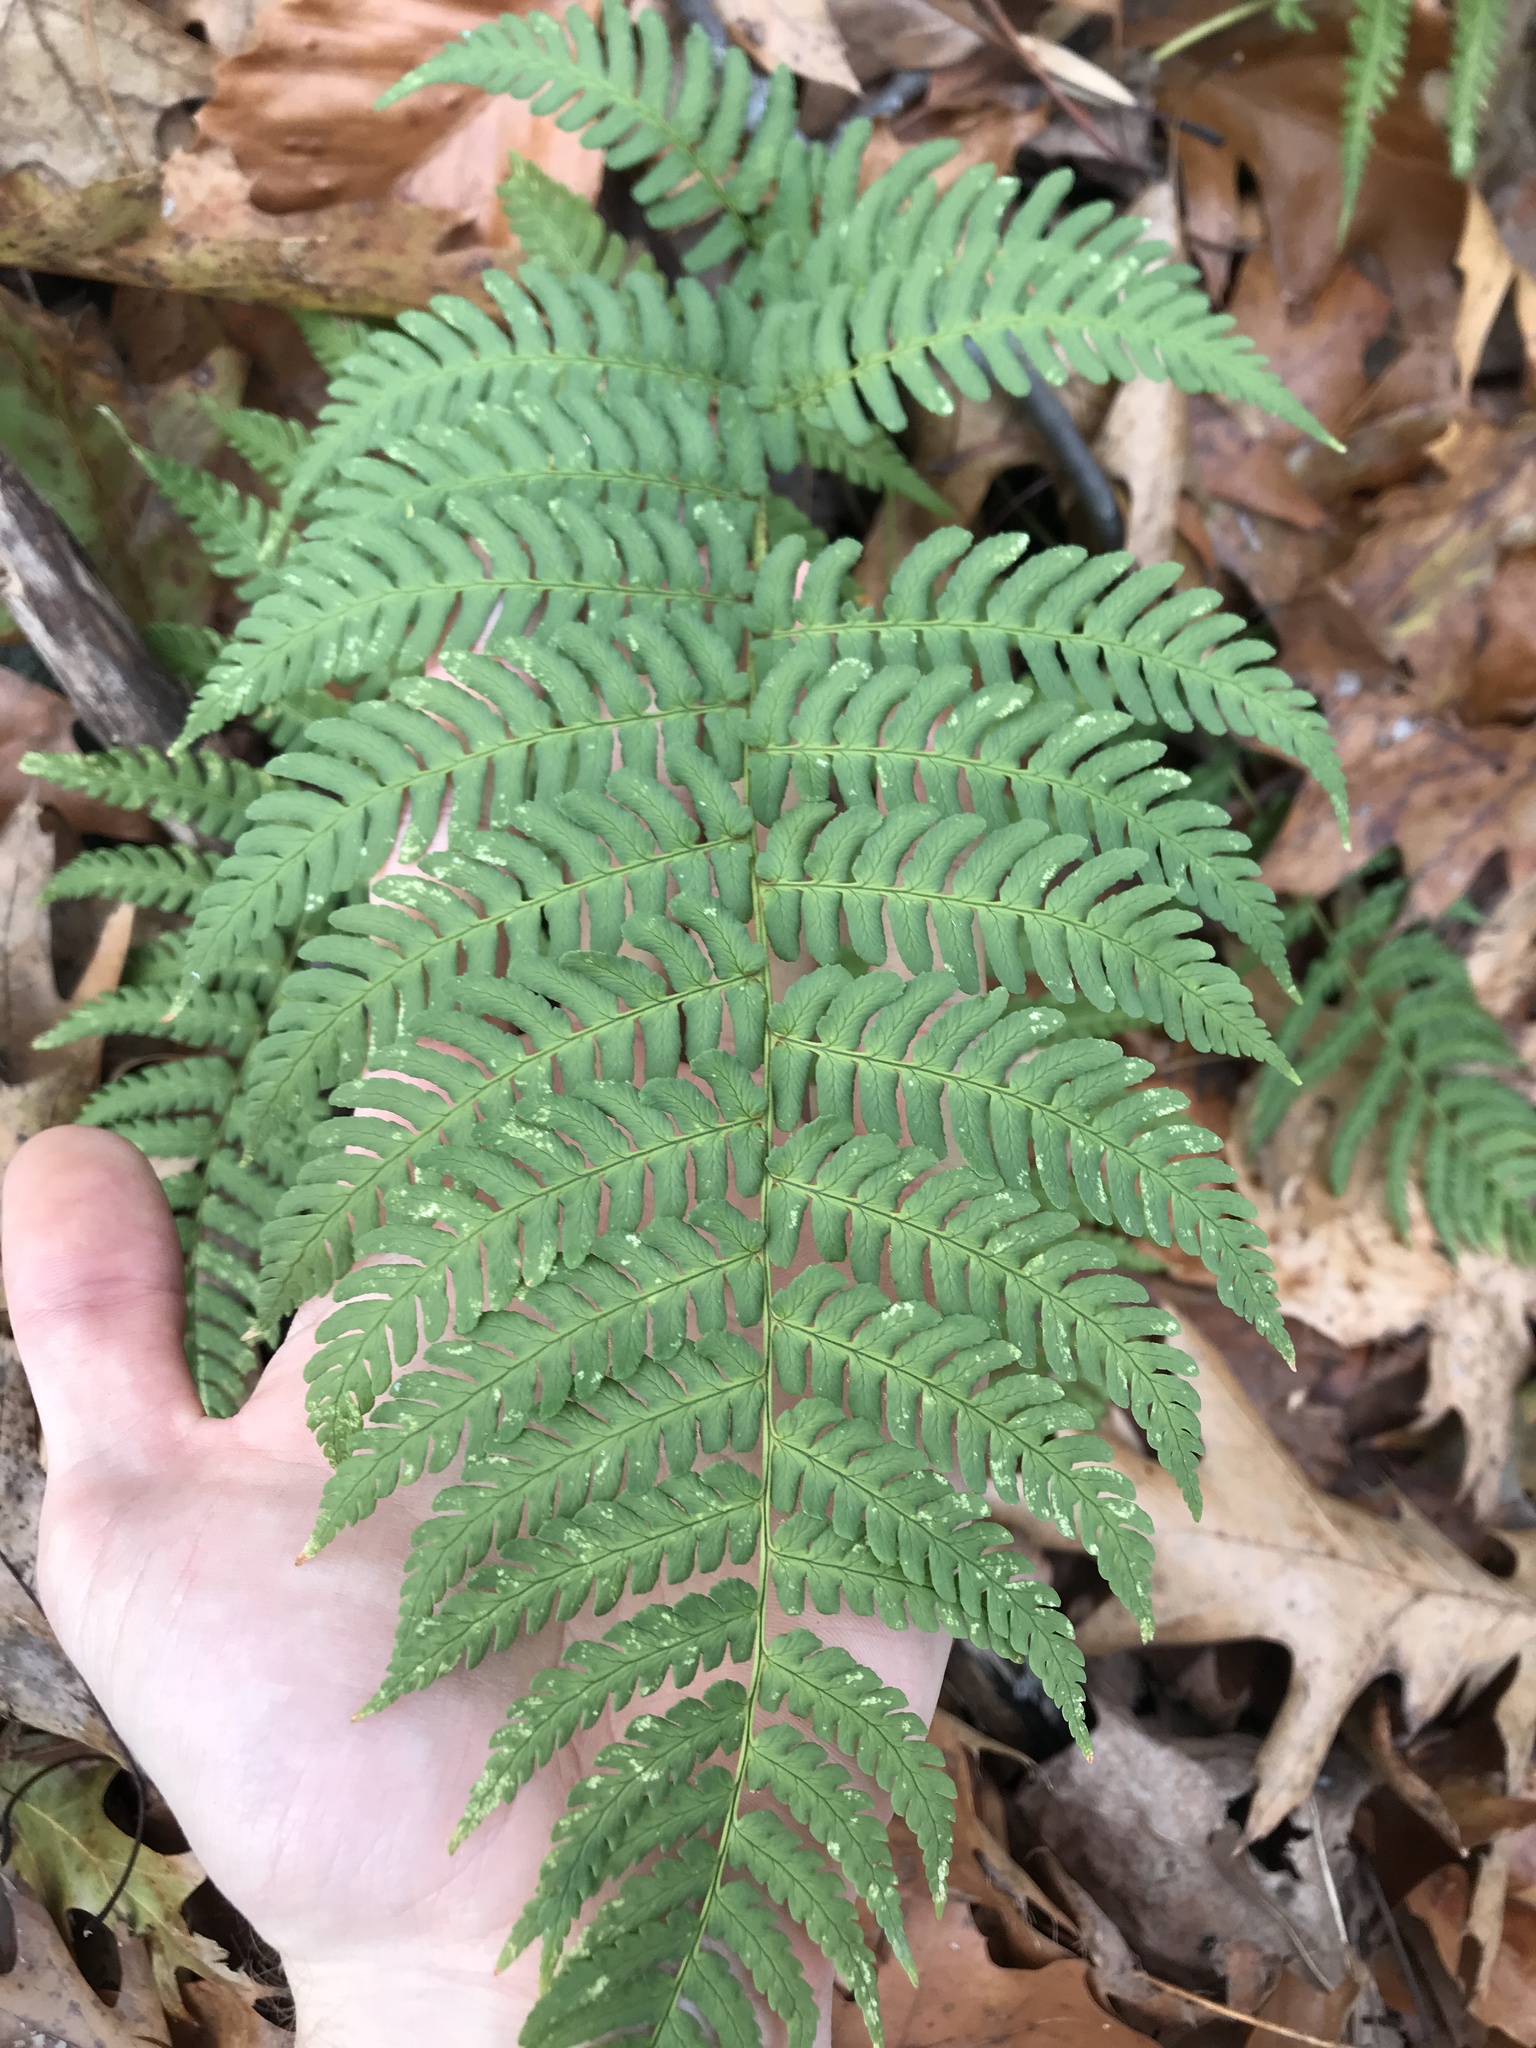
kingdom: Plantae
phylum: Tracheophyta
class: Polypodiopsida
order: Polypodiales
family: Dryopteridaceae
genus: Dryopteris
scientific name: Dryopteris marginalis
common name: Marginal wood fern
